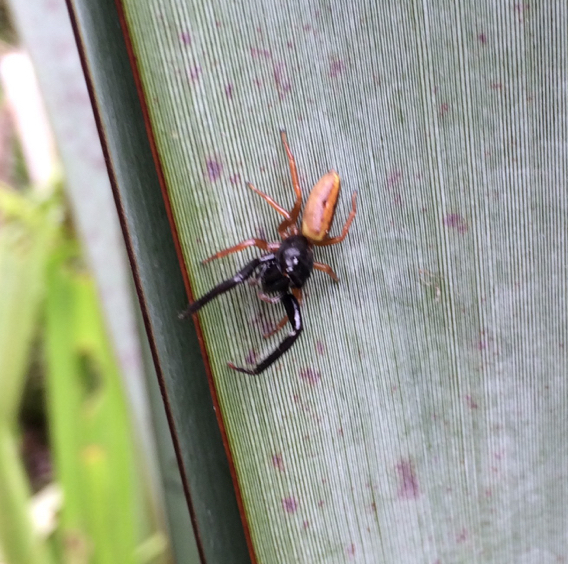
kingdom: Animalia
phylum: Arthropoda
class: Arachnida
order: Araneae
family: Salticidae
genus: Trite
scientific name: Trite planiceps
